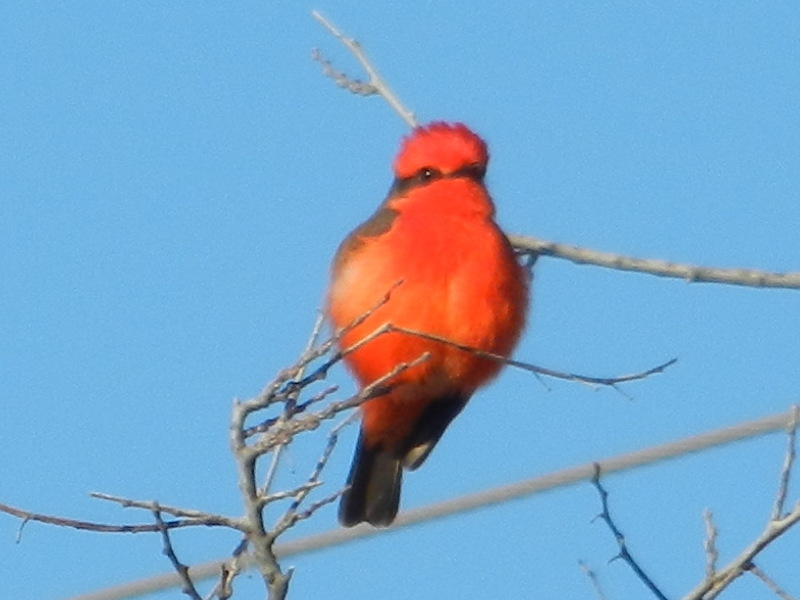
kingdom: Animalia
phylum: Chordata
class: Aves
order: Passeriformes
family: Tyrannidae
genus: Pyrocephalus
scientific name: Pyrocephalus rubinus
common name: Vermilion flycatcher
